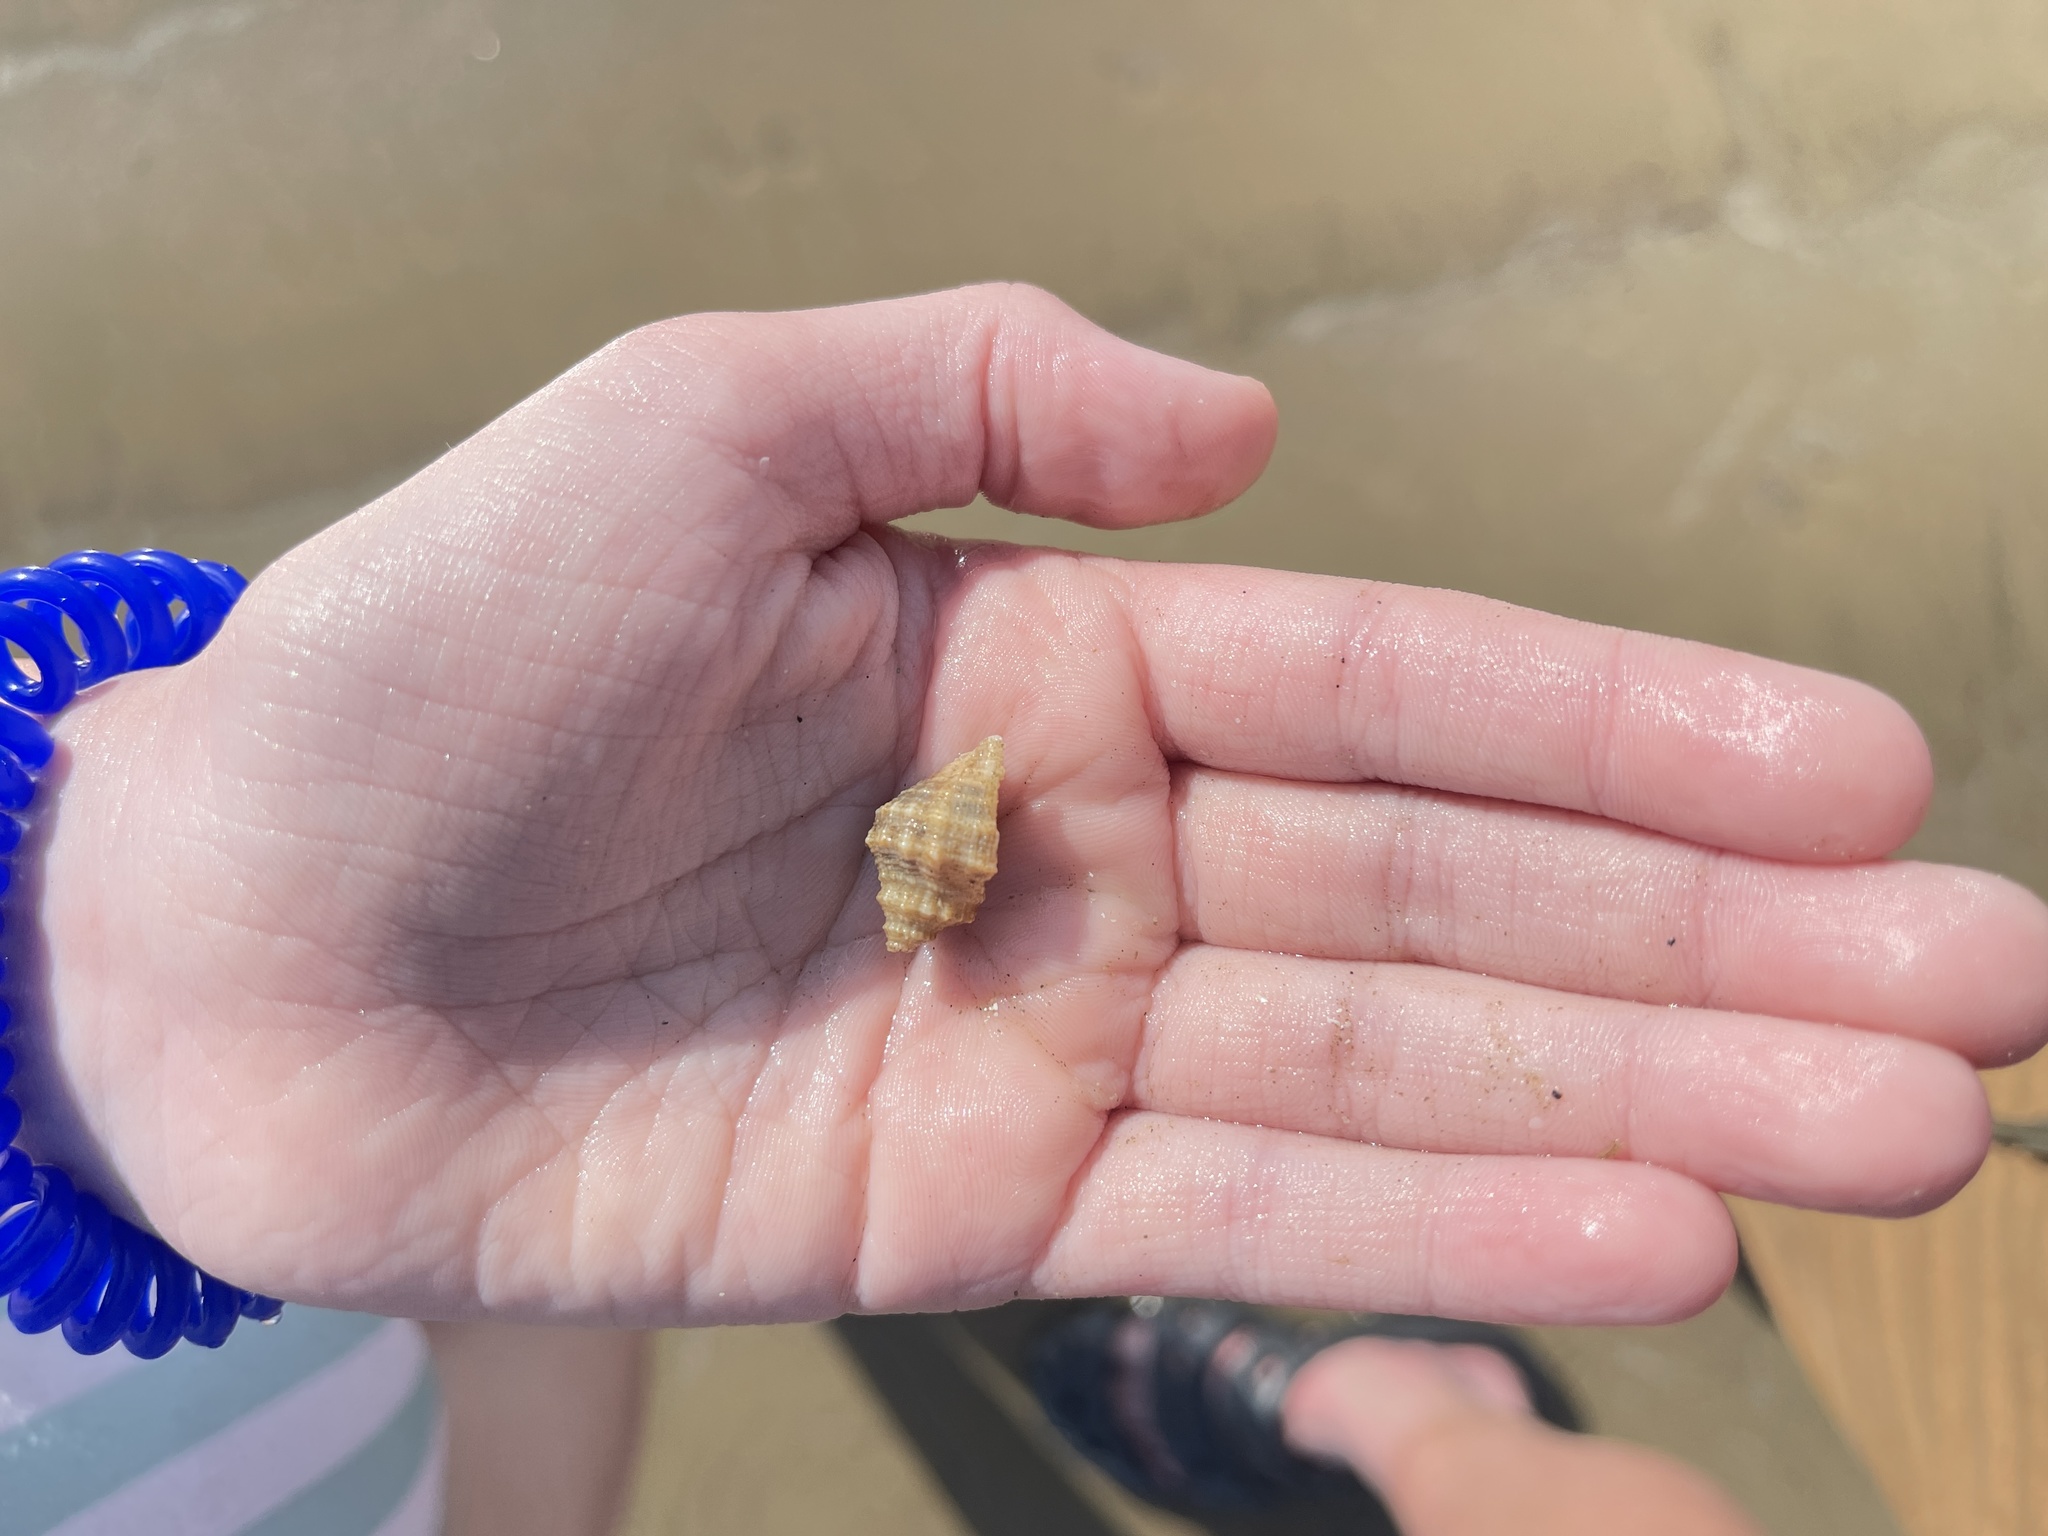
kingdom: Animalia
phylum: Mollusca
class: Gastropoda
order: Neogastropoda
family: Muricidae
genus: Stramonita
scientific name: Stramonita floridana
